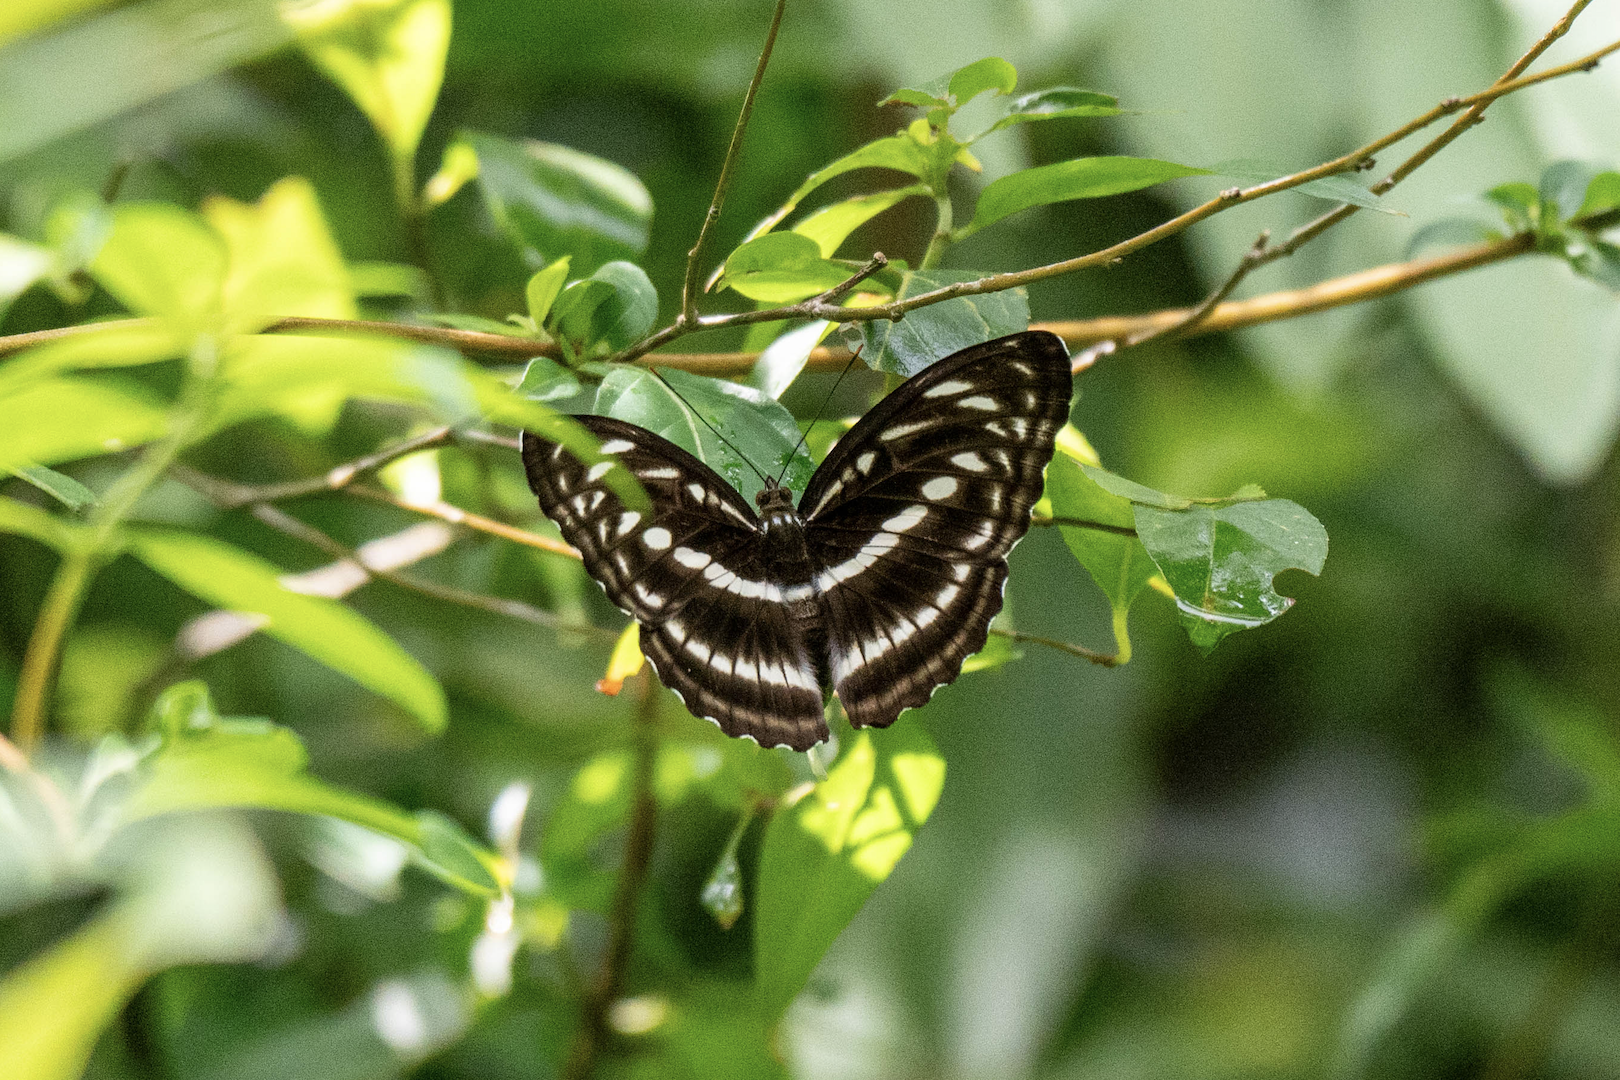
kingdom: Animalia
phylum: Arthropoda
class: Insecta
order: Lepidoptera
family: Nymphalidae
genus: Parathyma
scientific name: Parathyma selenophora
